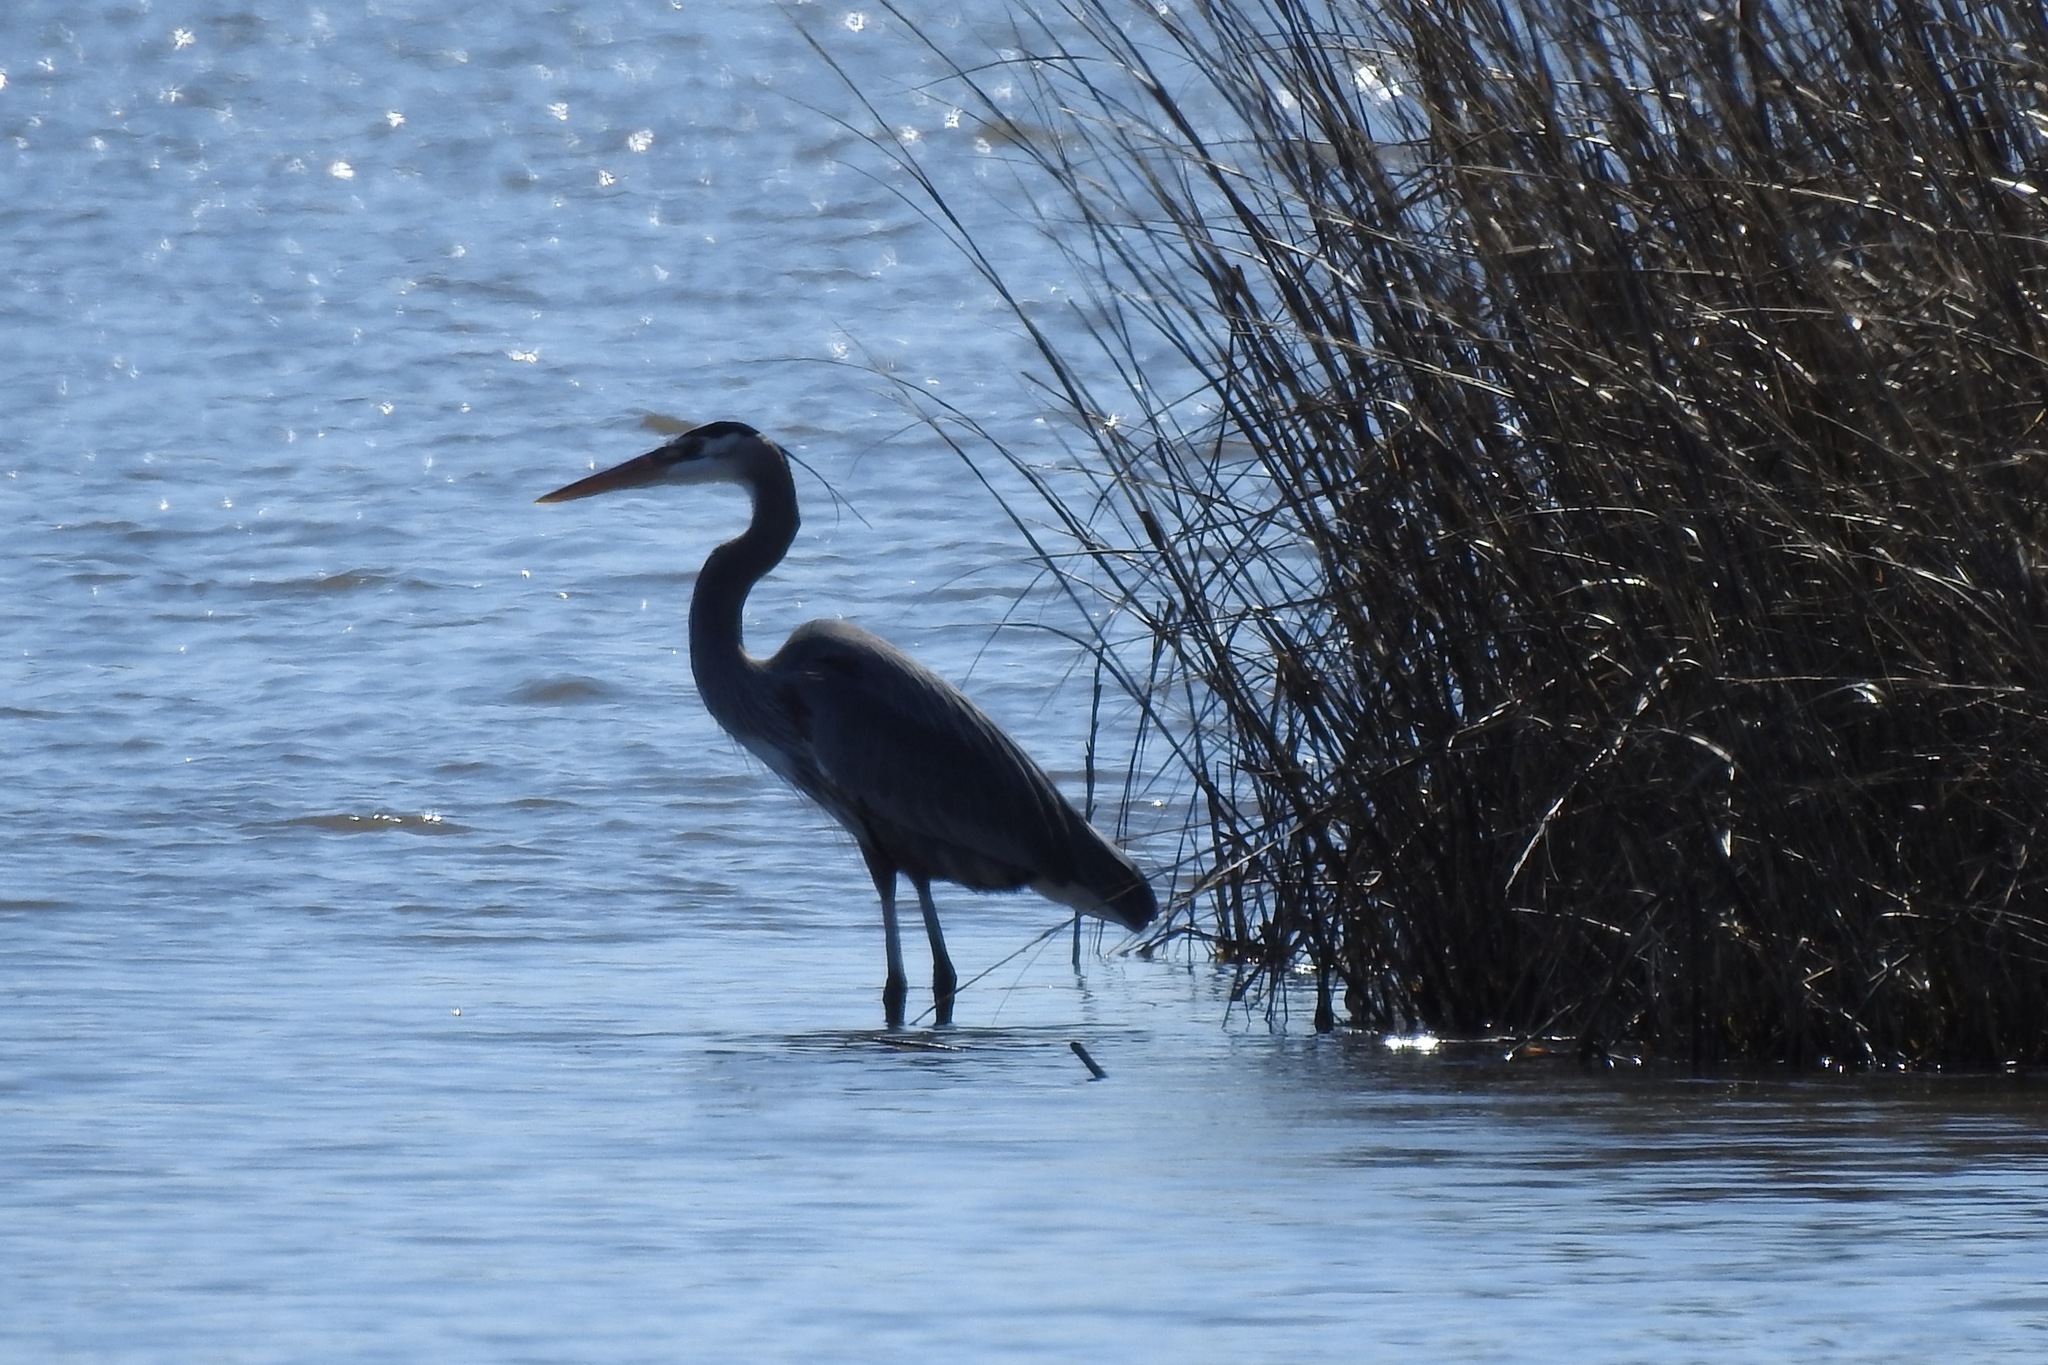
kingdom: Animalia
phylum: Chordata
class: Aves
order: Pelecaniformes
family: Ardeidae
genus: Ardea
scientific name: Ardea herodias
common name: Great blue heron
